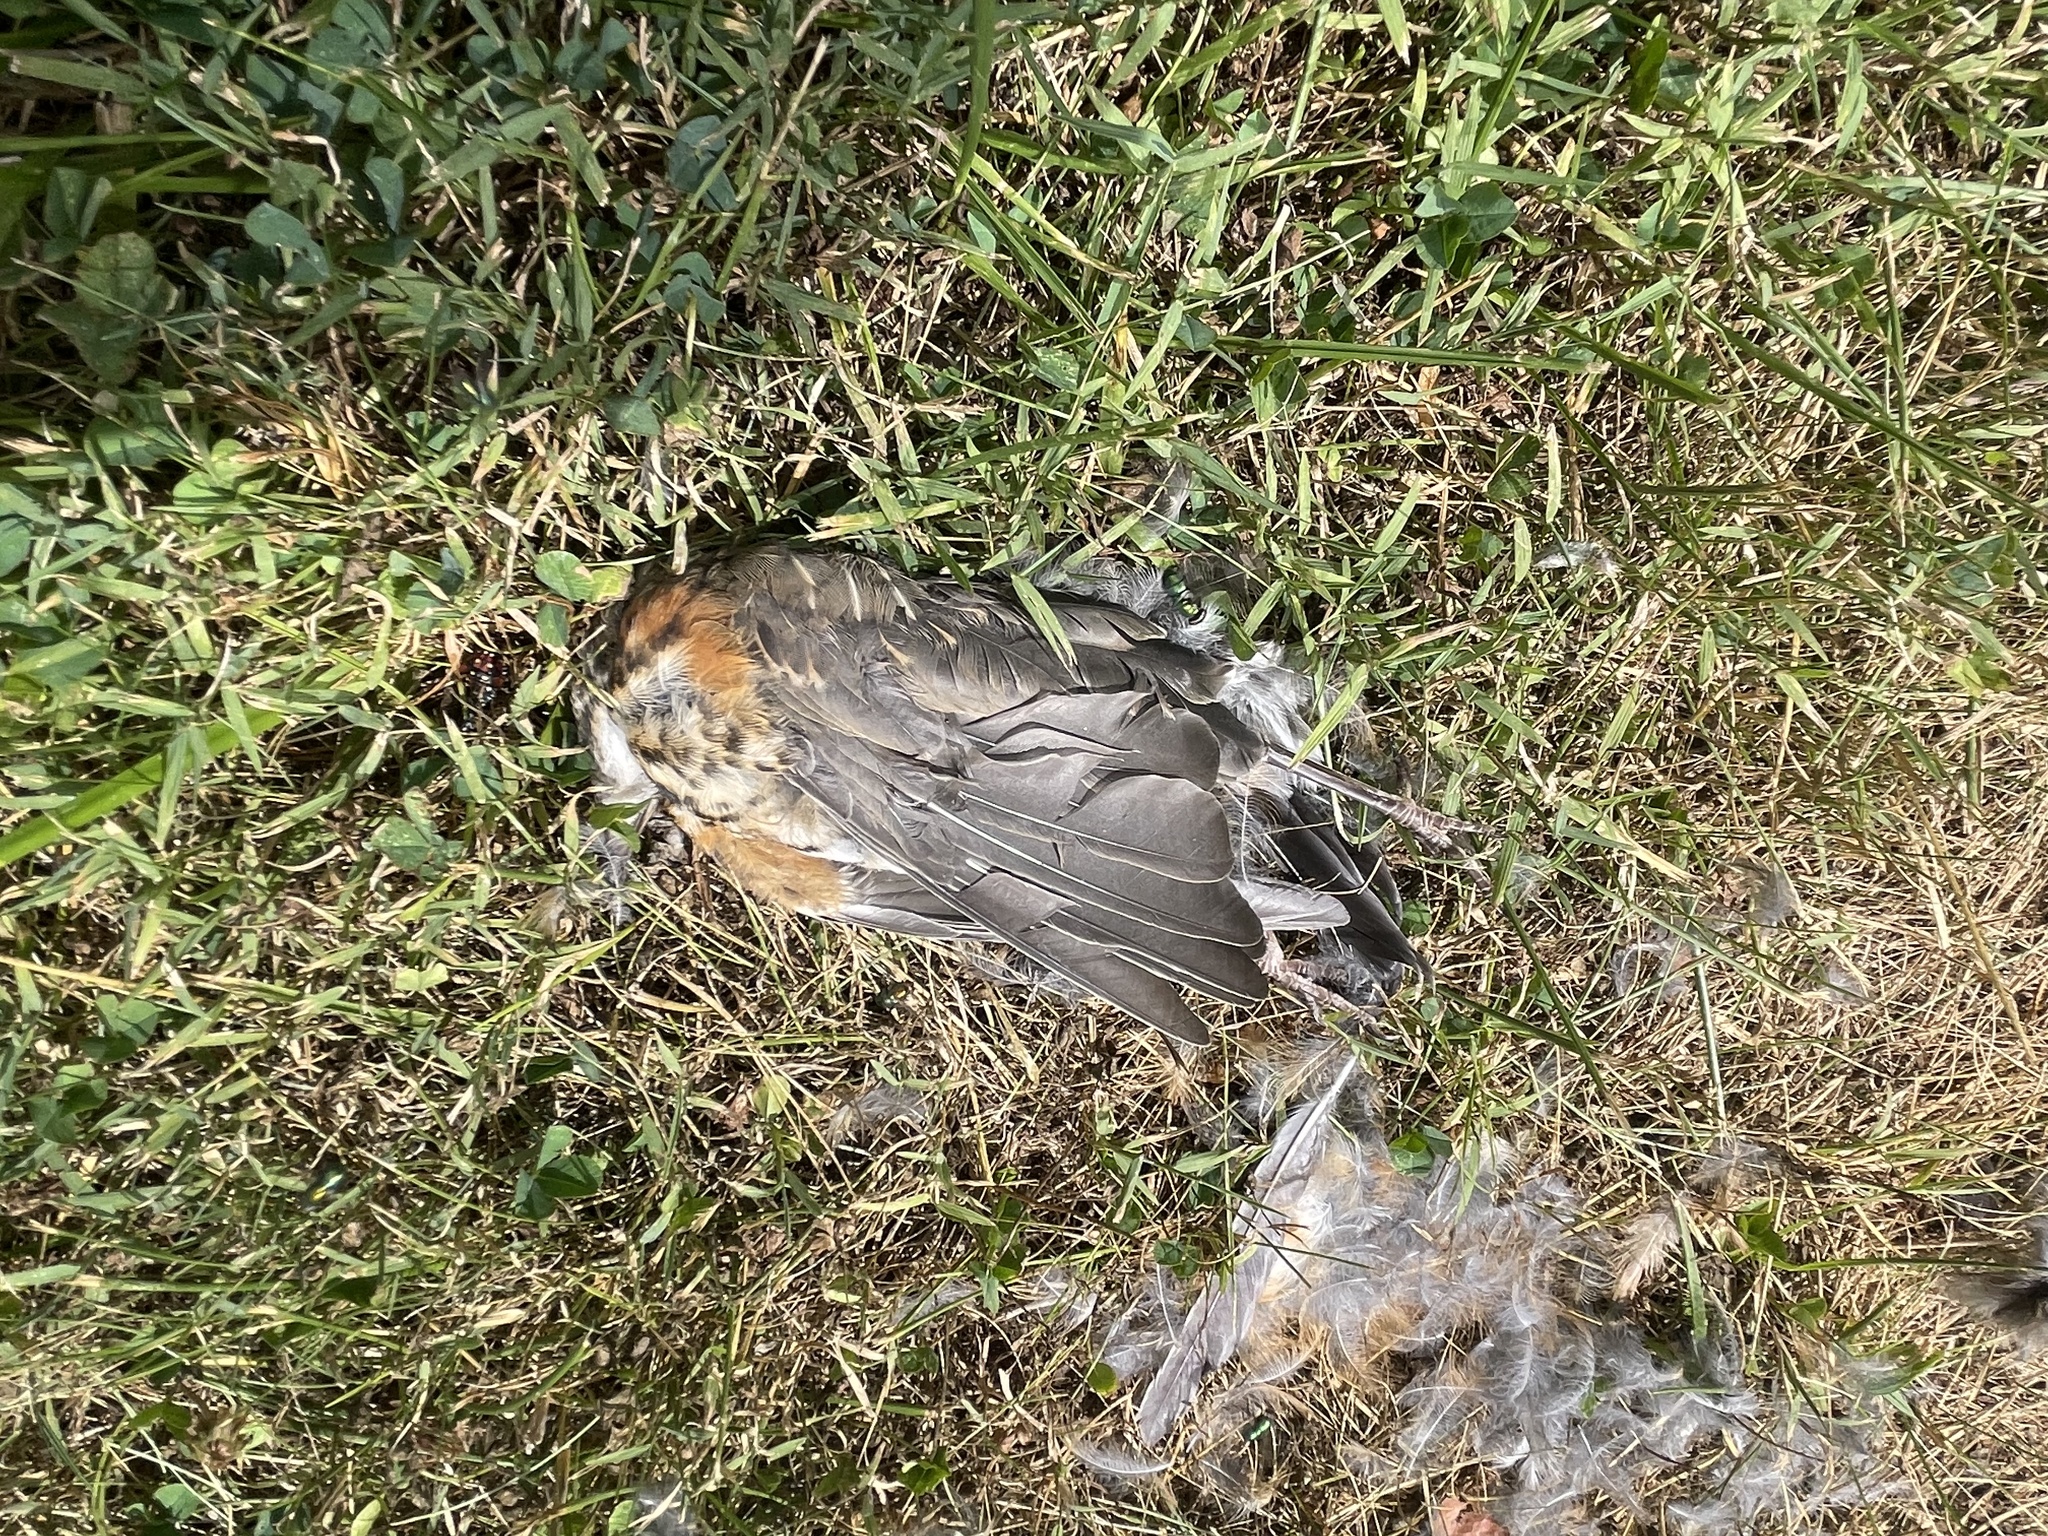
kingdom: Animalia
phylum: Chordata
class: Aves
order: Passeriformes
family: Turdidae
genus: Turdus
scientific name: Turdus migratorius
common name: American robin
